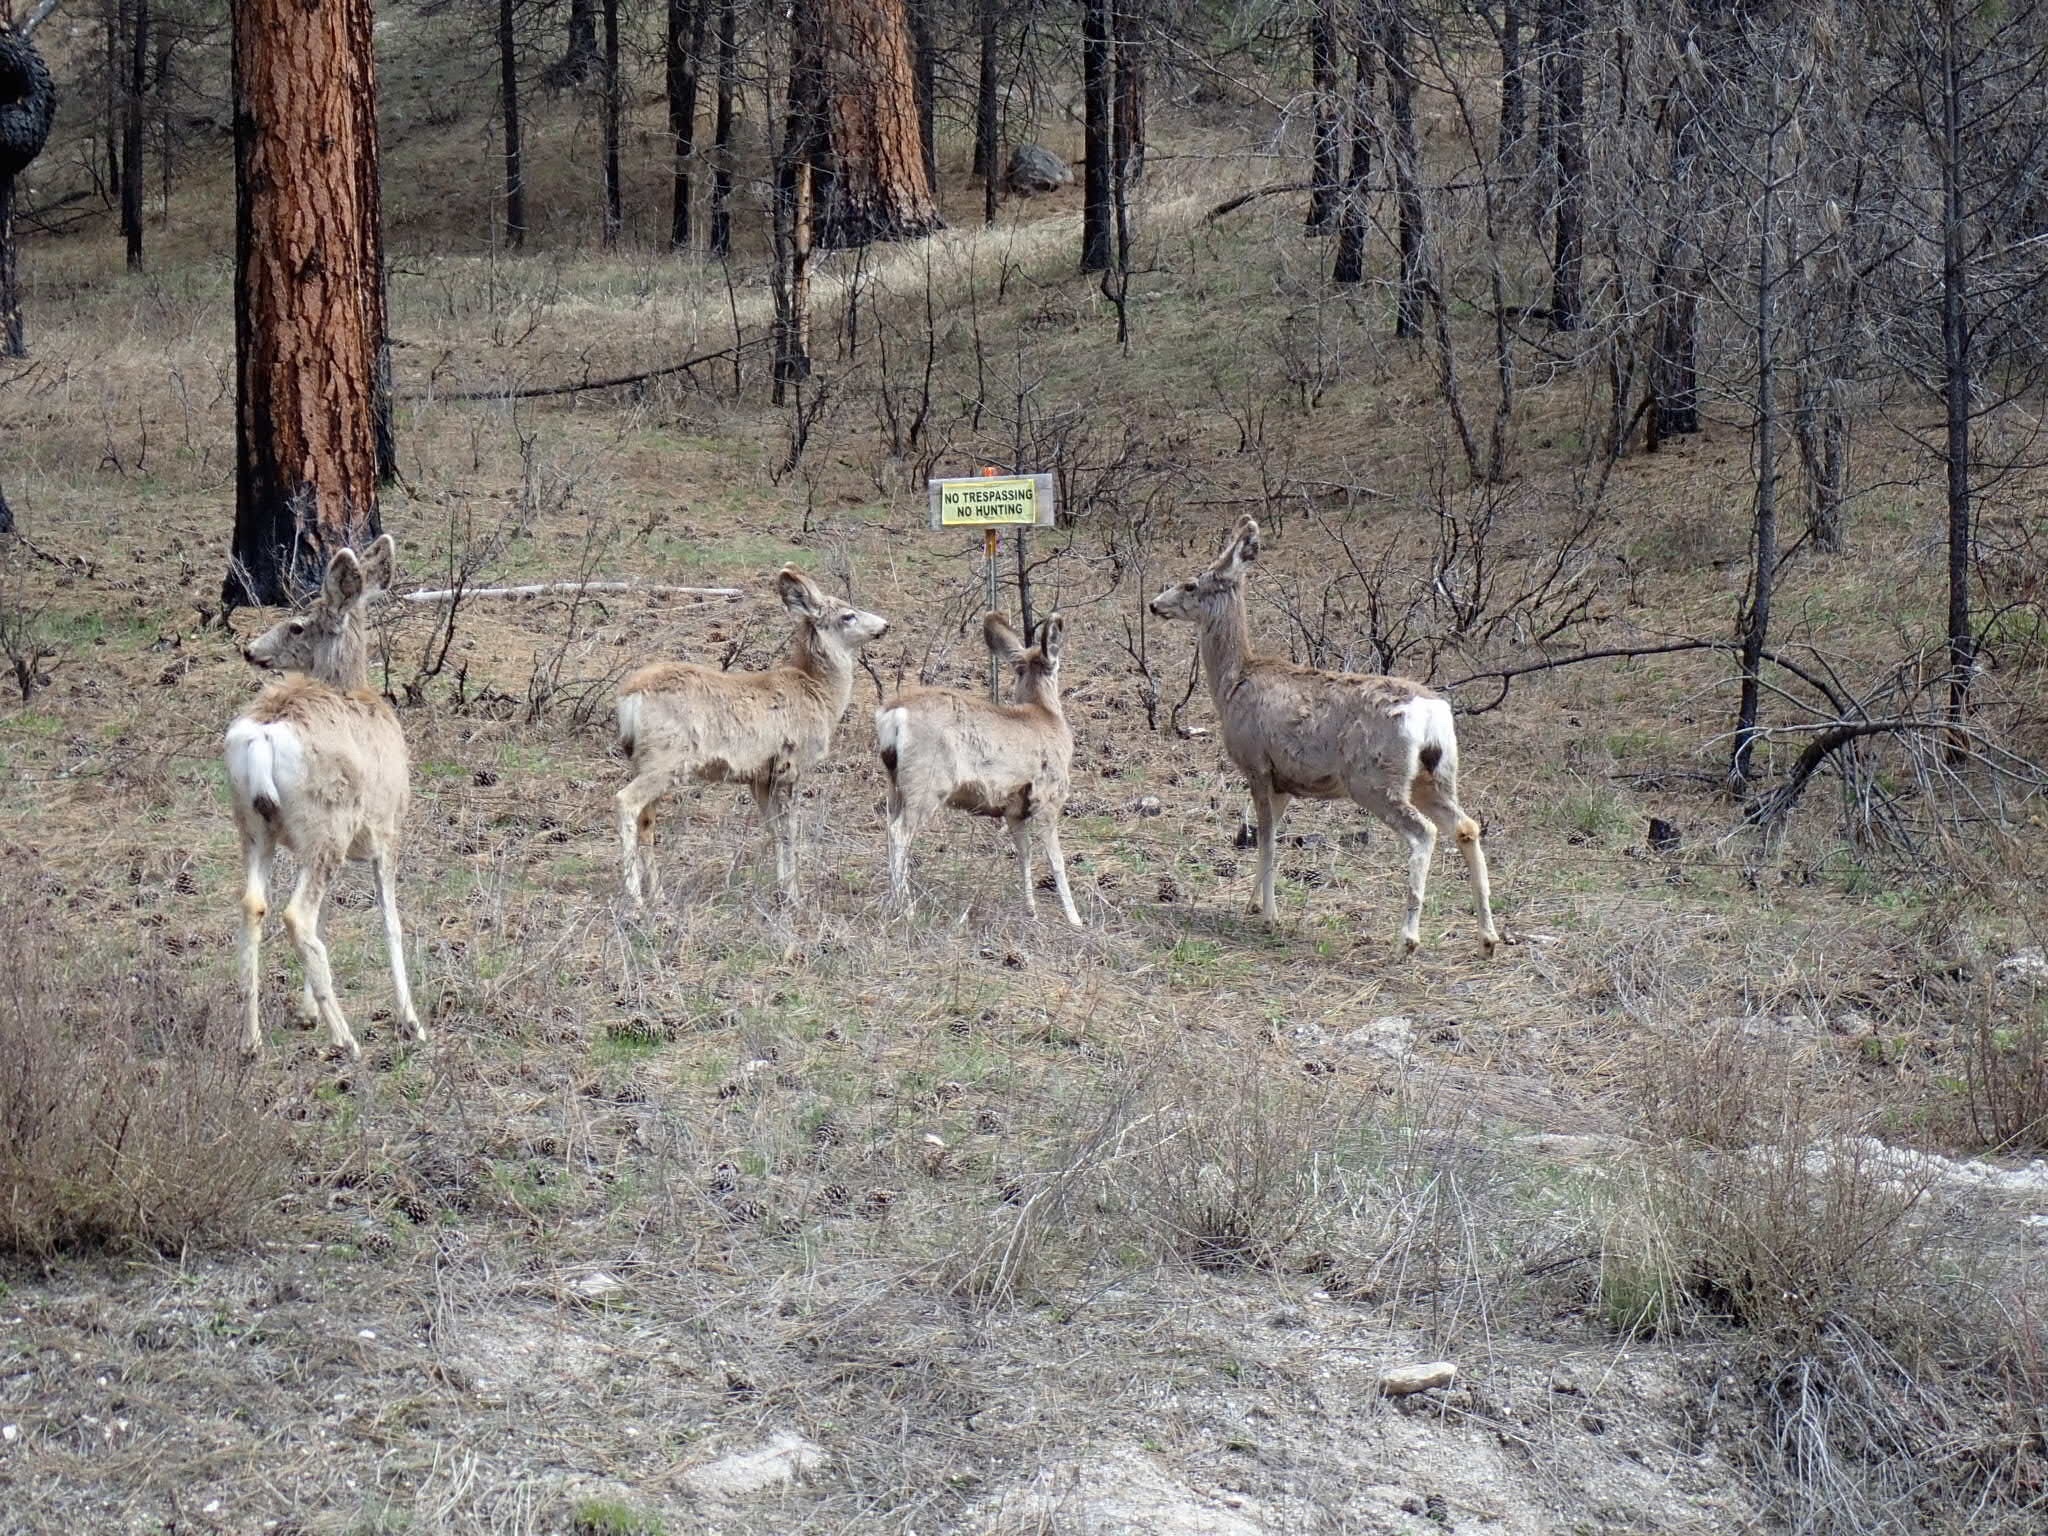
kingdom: Animalia
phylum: Chordata
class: Mammalia
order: Artiodactyla
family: Cervidae
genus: Odocoileus
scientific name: Odocoileus hemionus
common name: Mule deer
